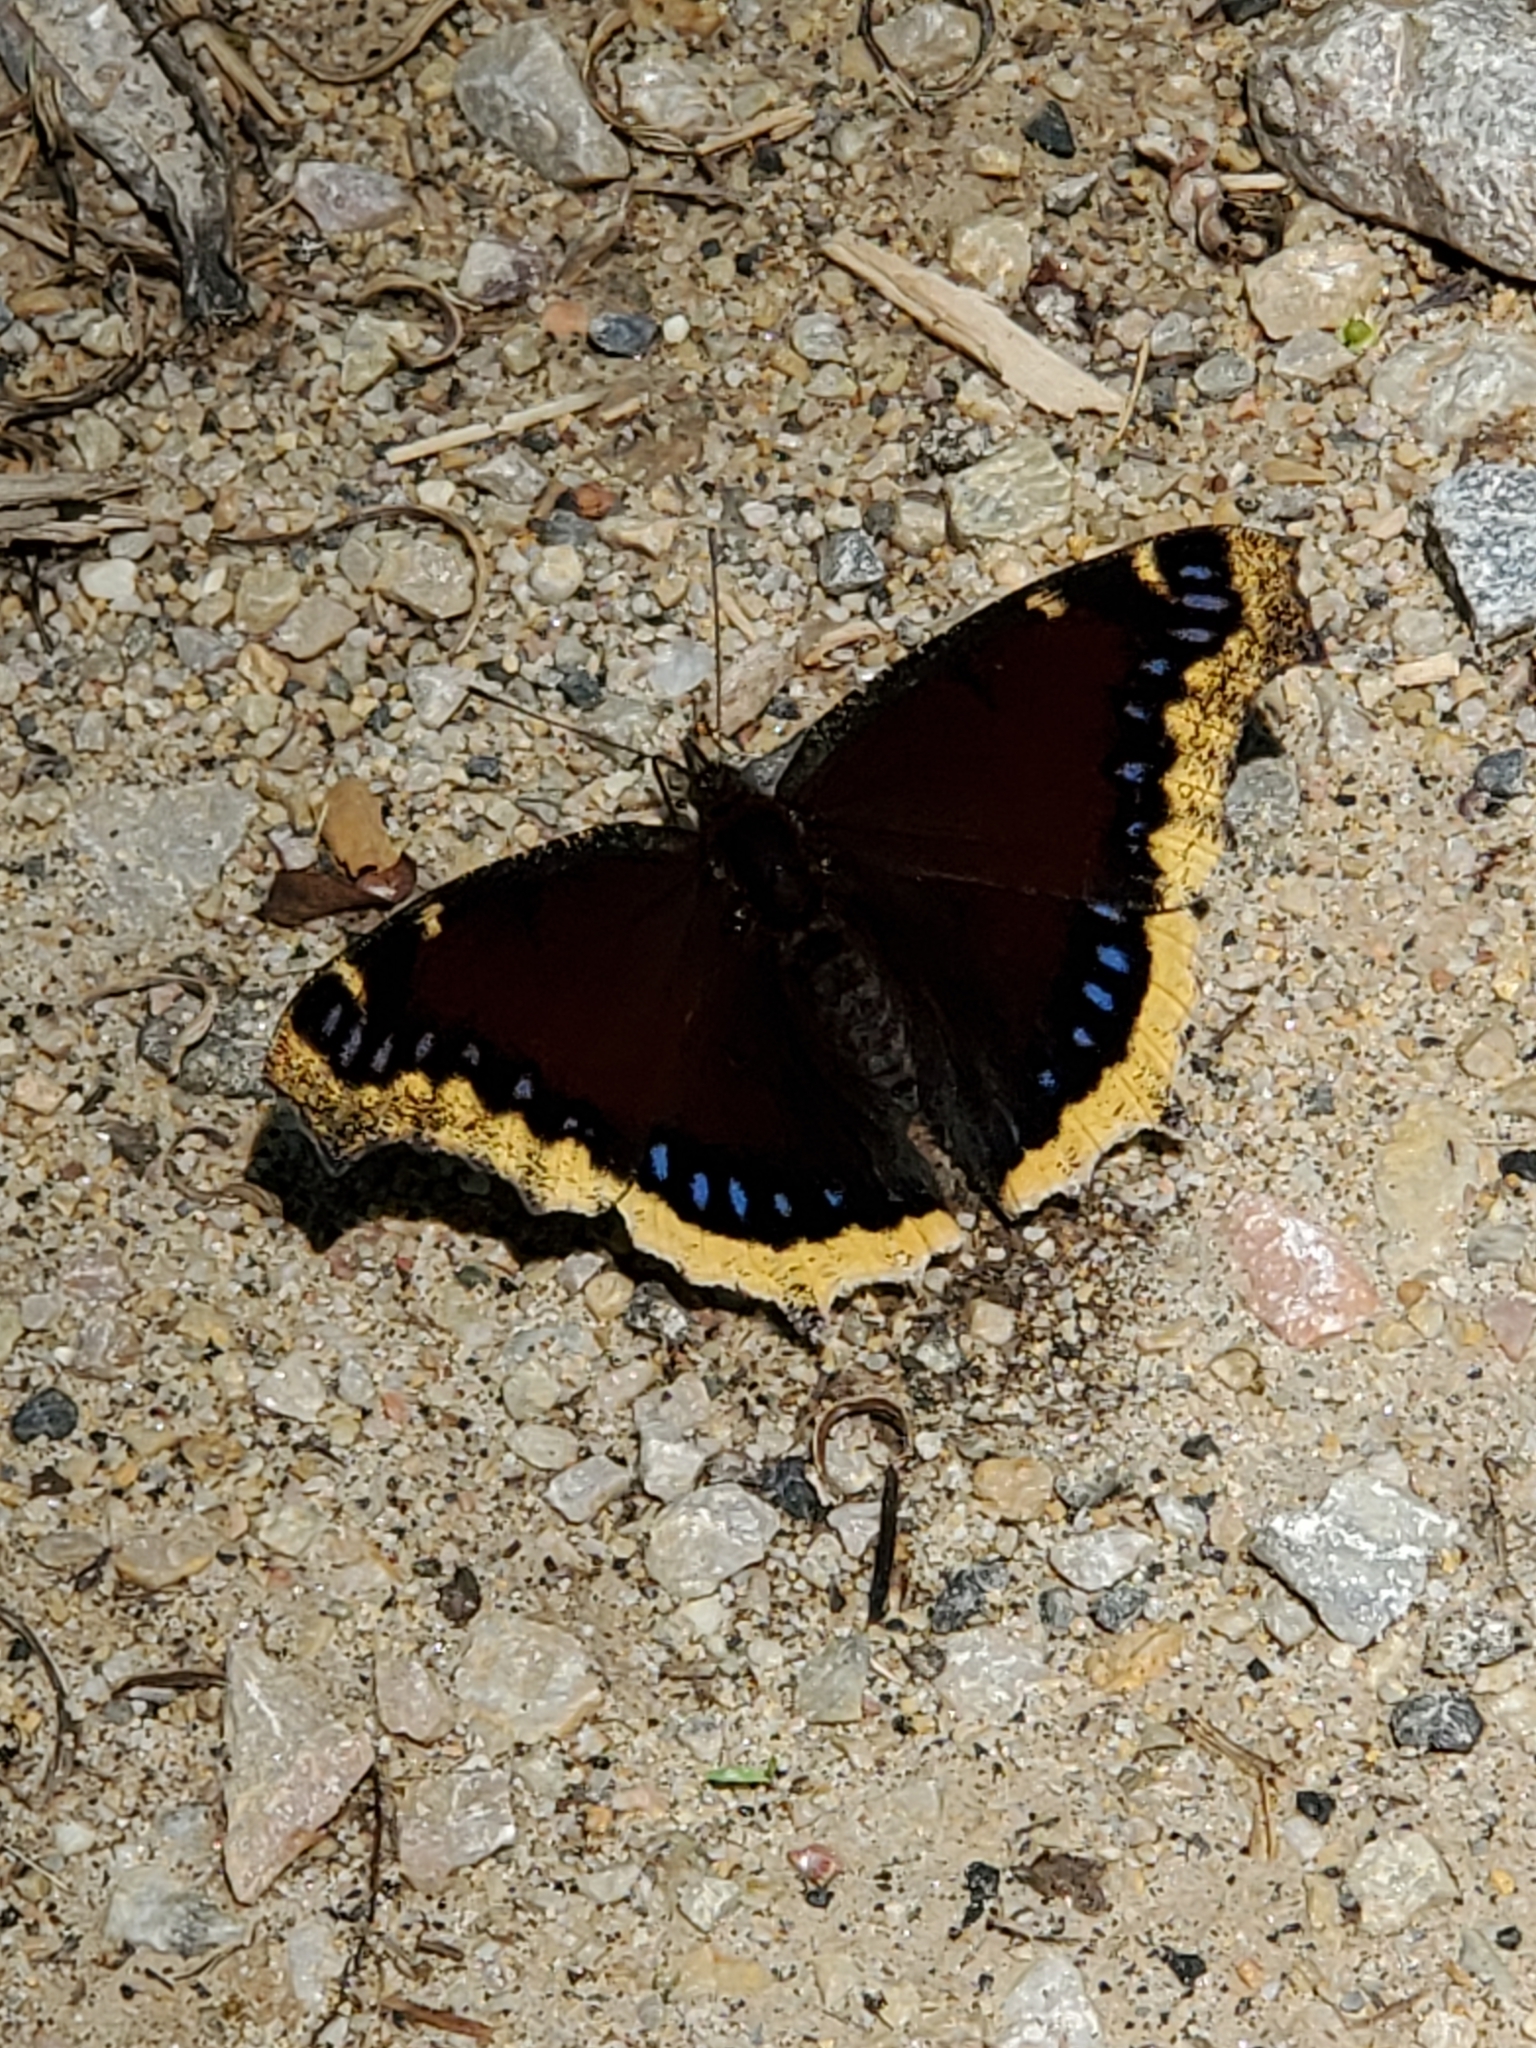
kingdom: Animalia
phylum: Arthropoda
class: Insecta
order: Lepidoptera
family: Nymphalidae
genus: Nymphalis
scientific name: Nymphalis antiopa
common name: Camberwell beauty
